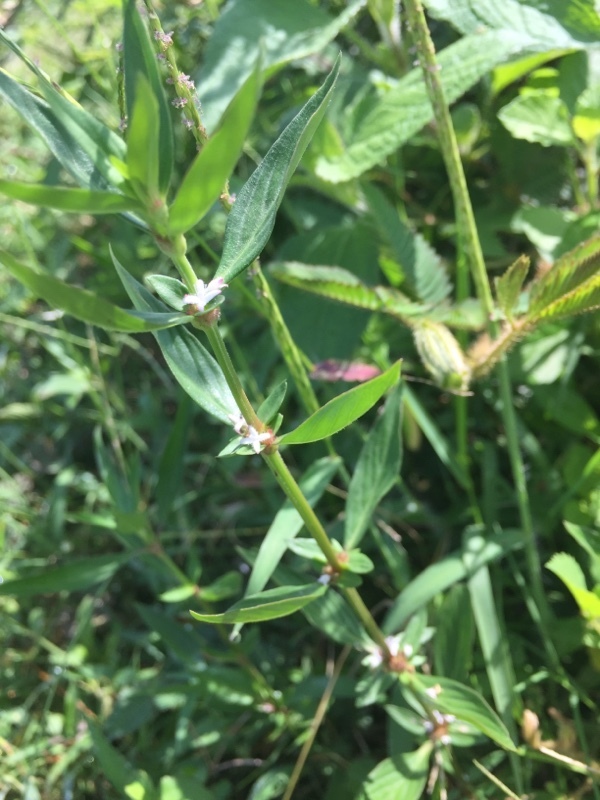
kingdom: Plantae
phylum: Tracheophyta
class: Magnoliopsida
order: Gentianales
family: Rubiaceae
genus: Spermacoce
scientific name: Spermacoce remota
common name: Woodland false buttonweed
